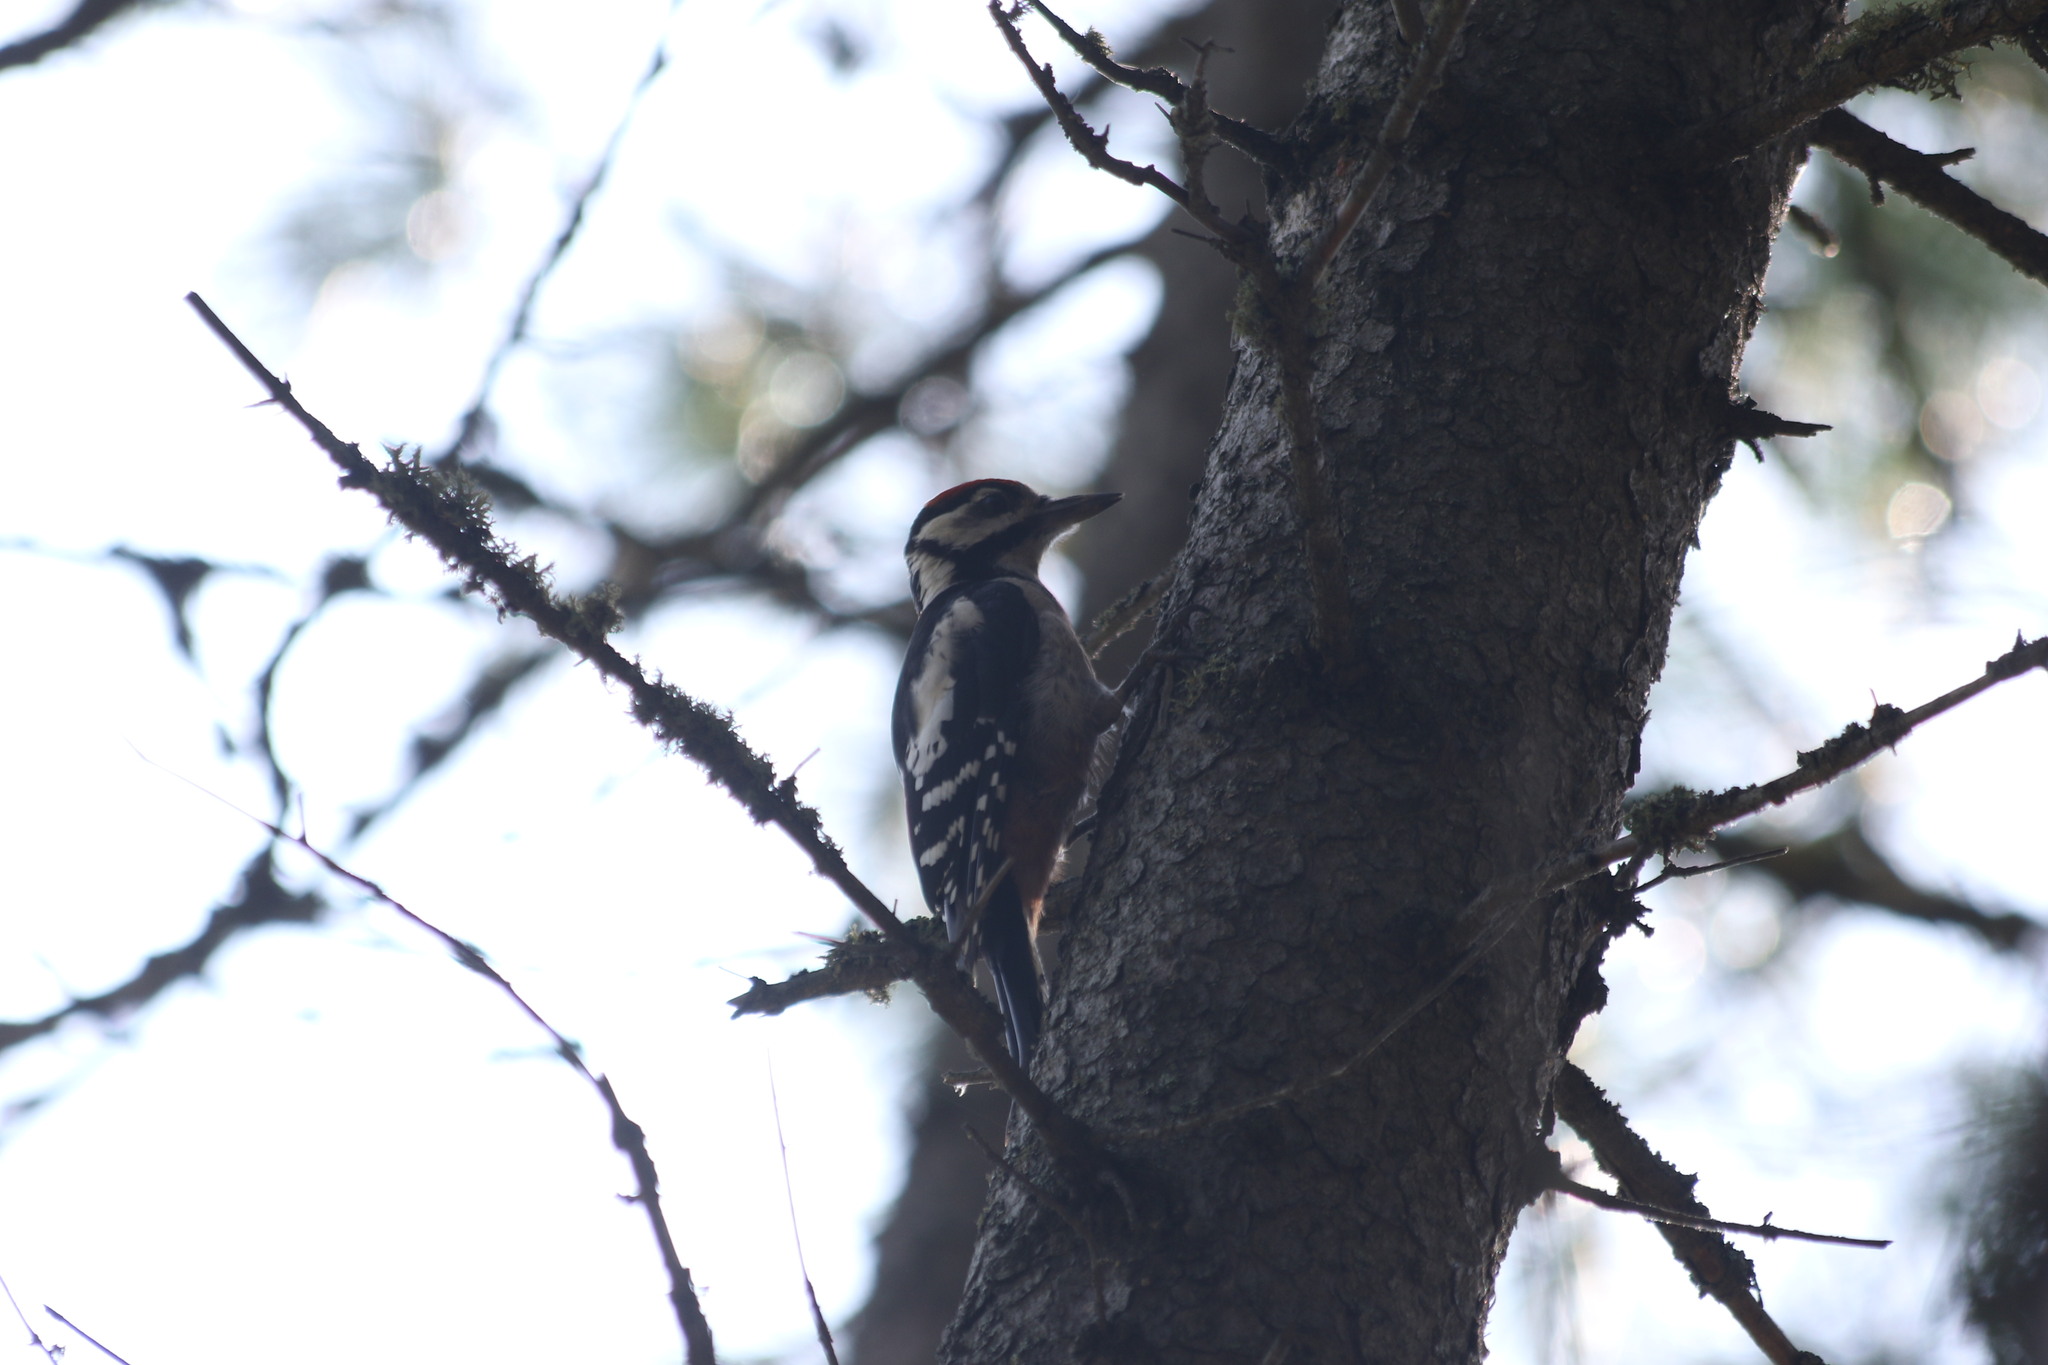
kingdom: Animalia
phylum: Chordata
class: Aves
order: Piciformes
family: Picidae
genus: Dendrocopos
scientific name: Dendrocopos major
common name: Great spotted woodpecker
